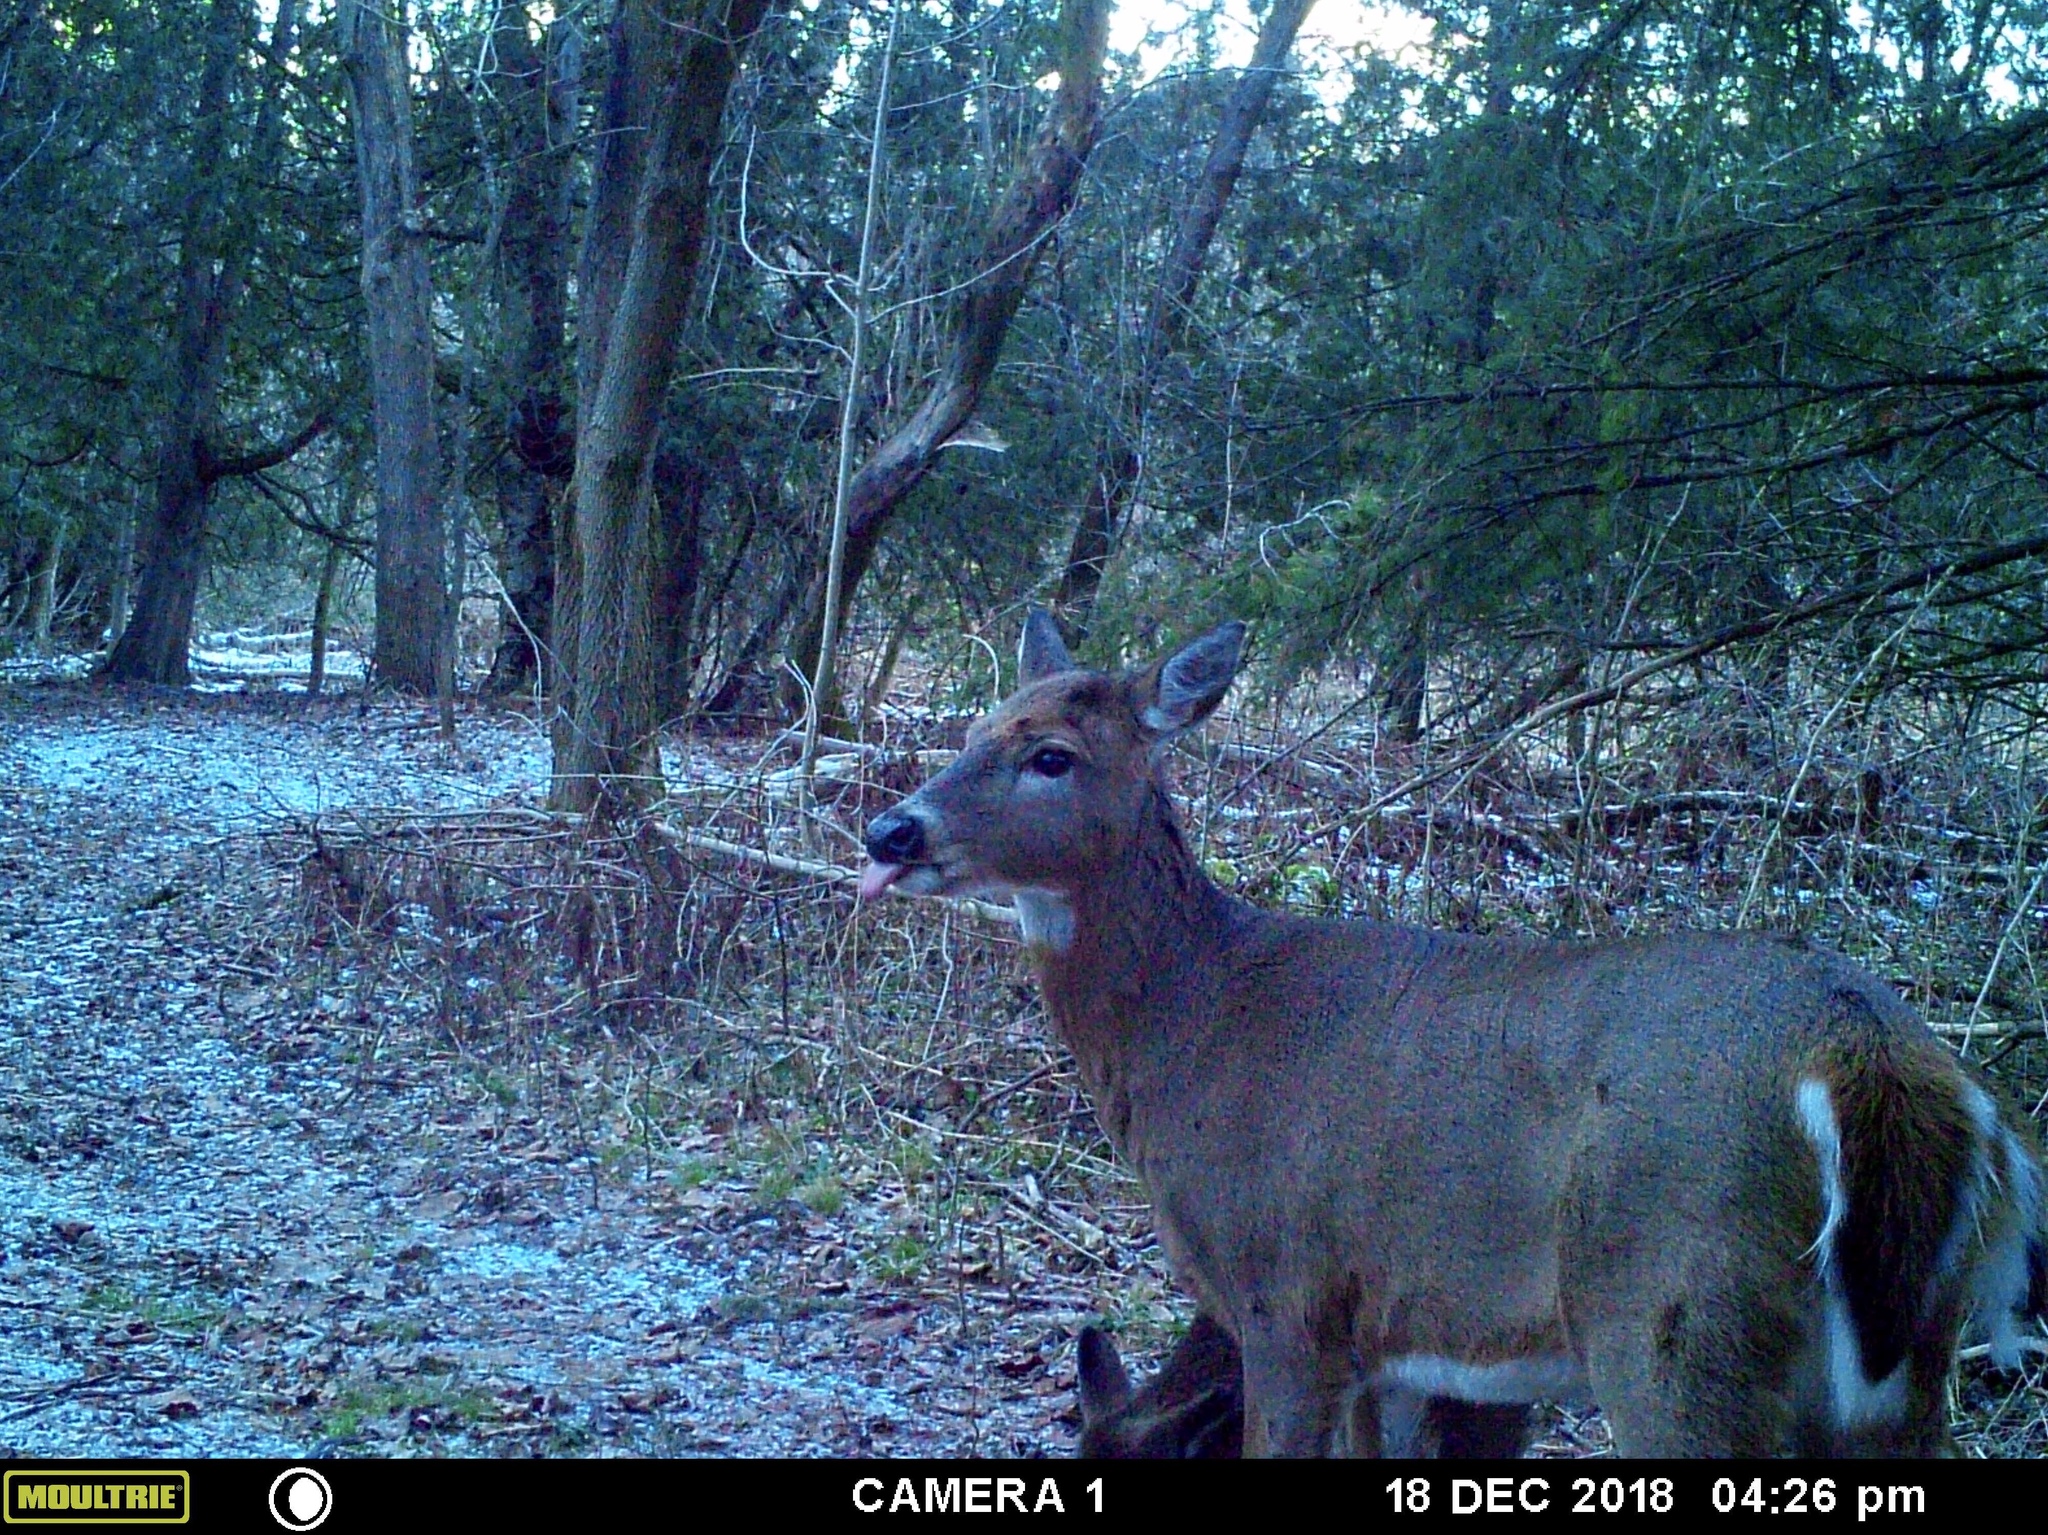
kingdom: Animalia
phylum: Chordata
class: Mammalia
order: Artiodactyla
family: Cervidae
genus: Odocoileus
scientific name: Odocoileus virginianus
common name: White-tailed deer
